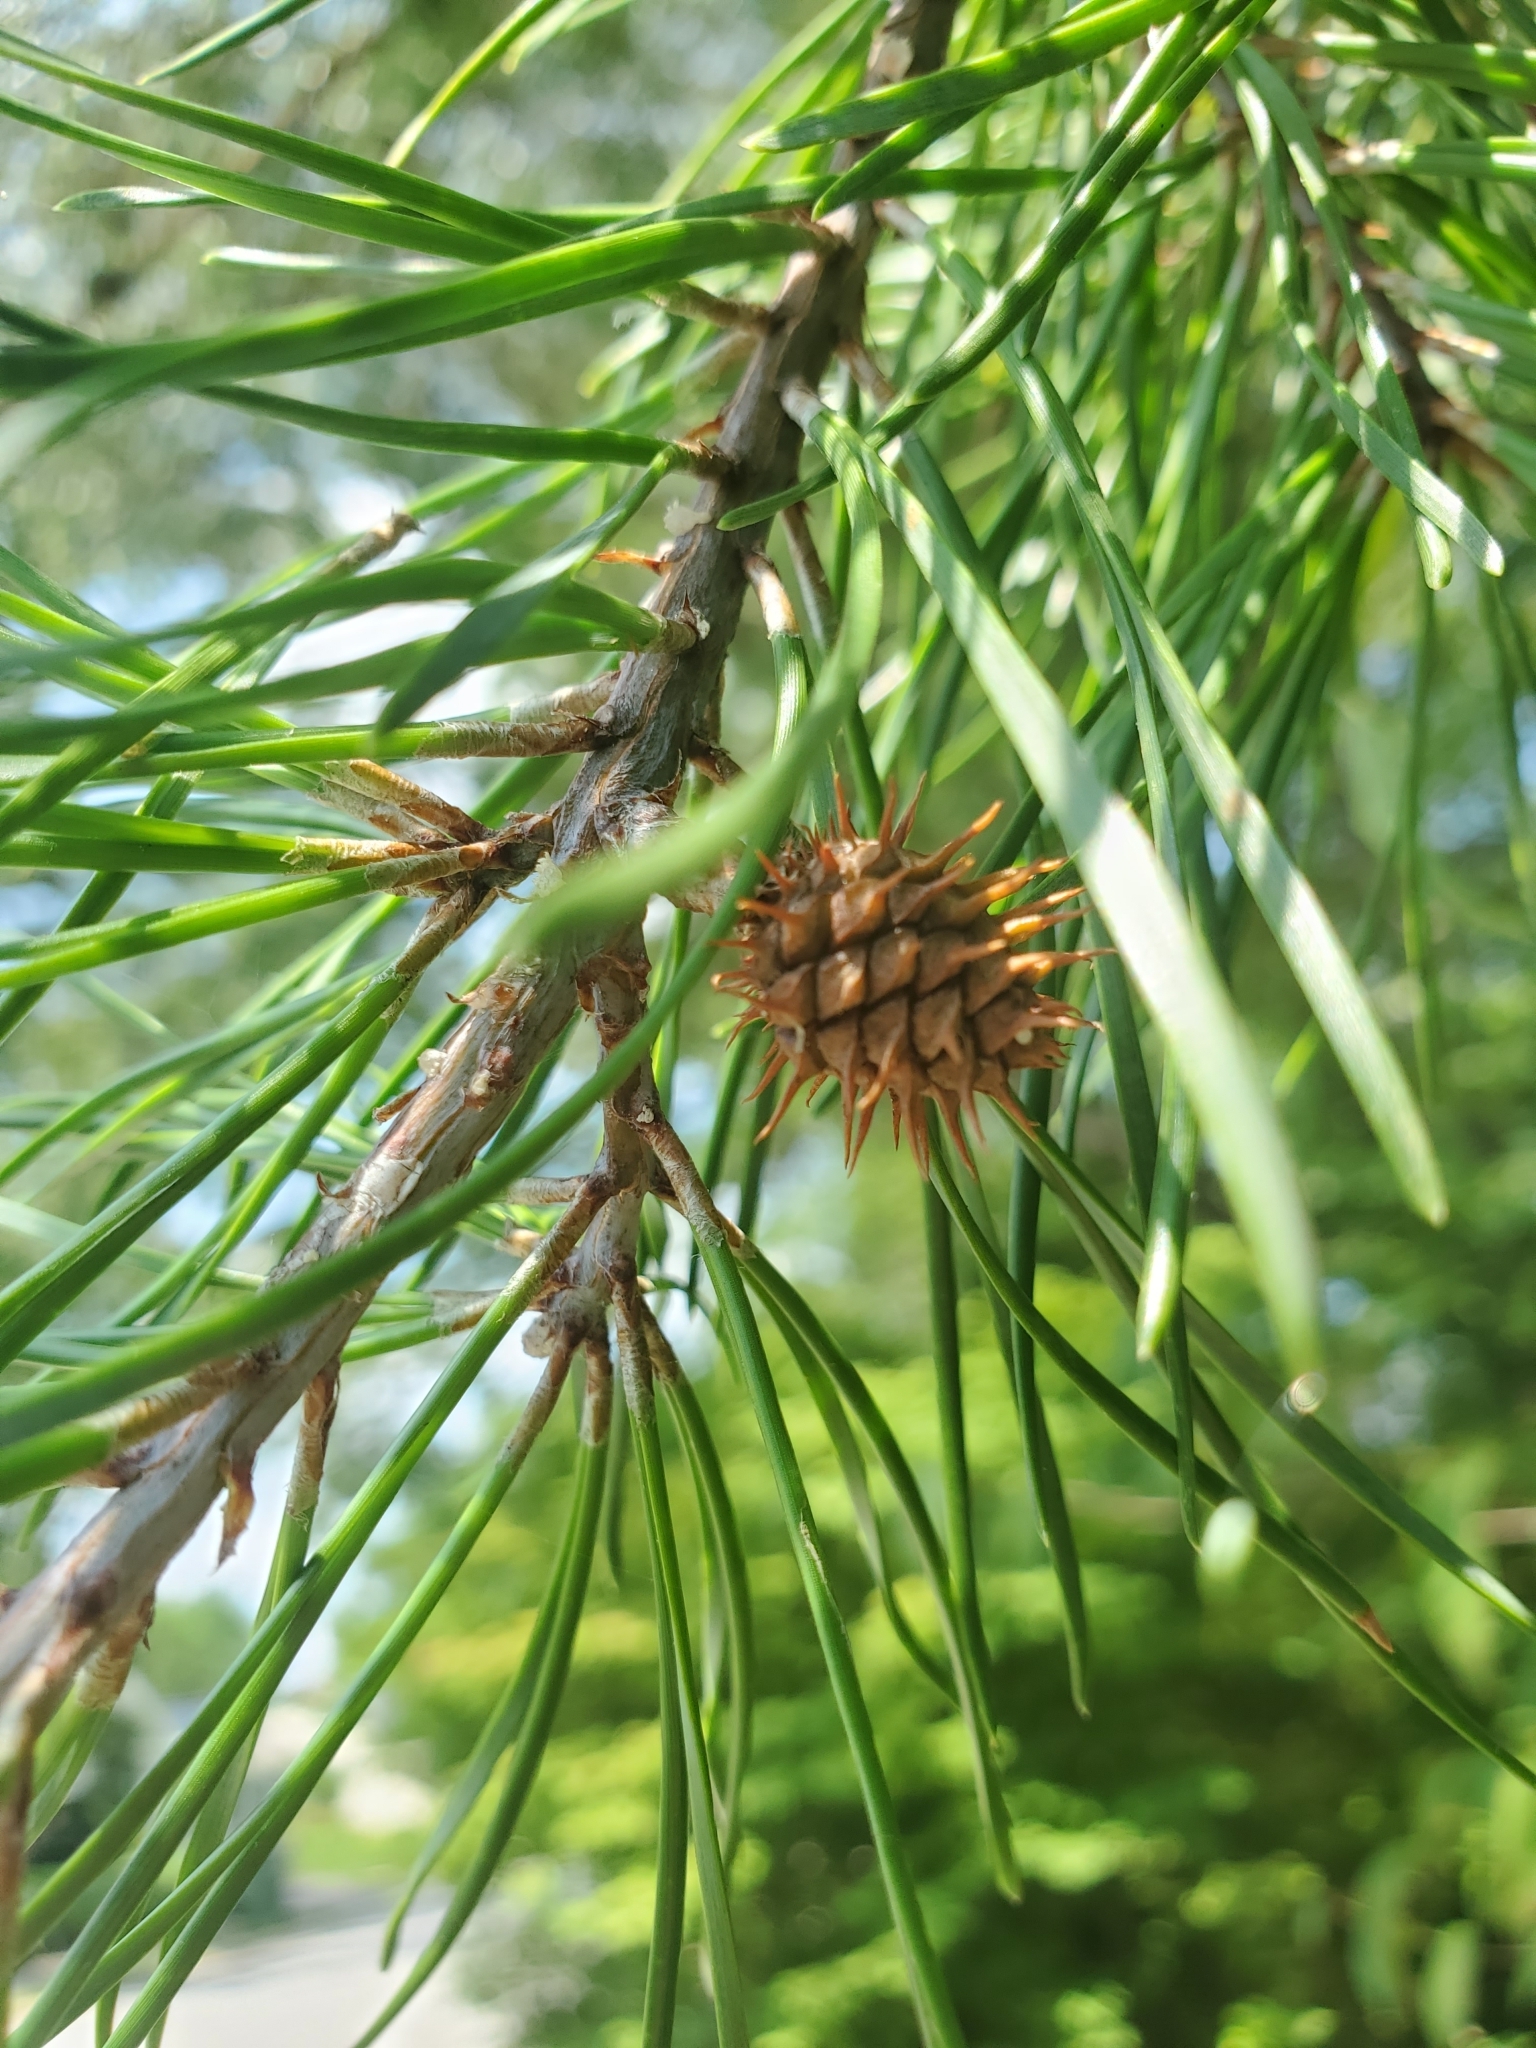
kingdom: Plantae
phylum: Tracheophyta
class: Pinopsida
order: Pinales
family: Pinaceae
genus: Pinus
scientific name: Pinus virginiana
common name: Scrub pine
